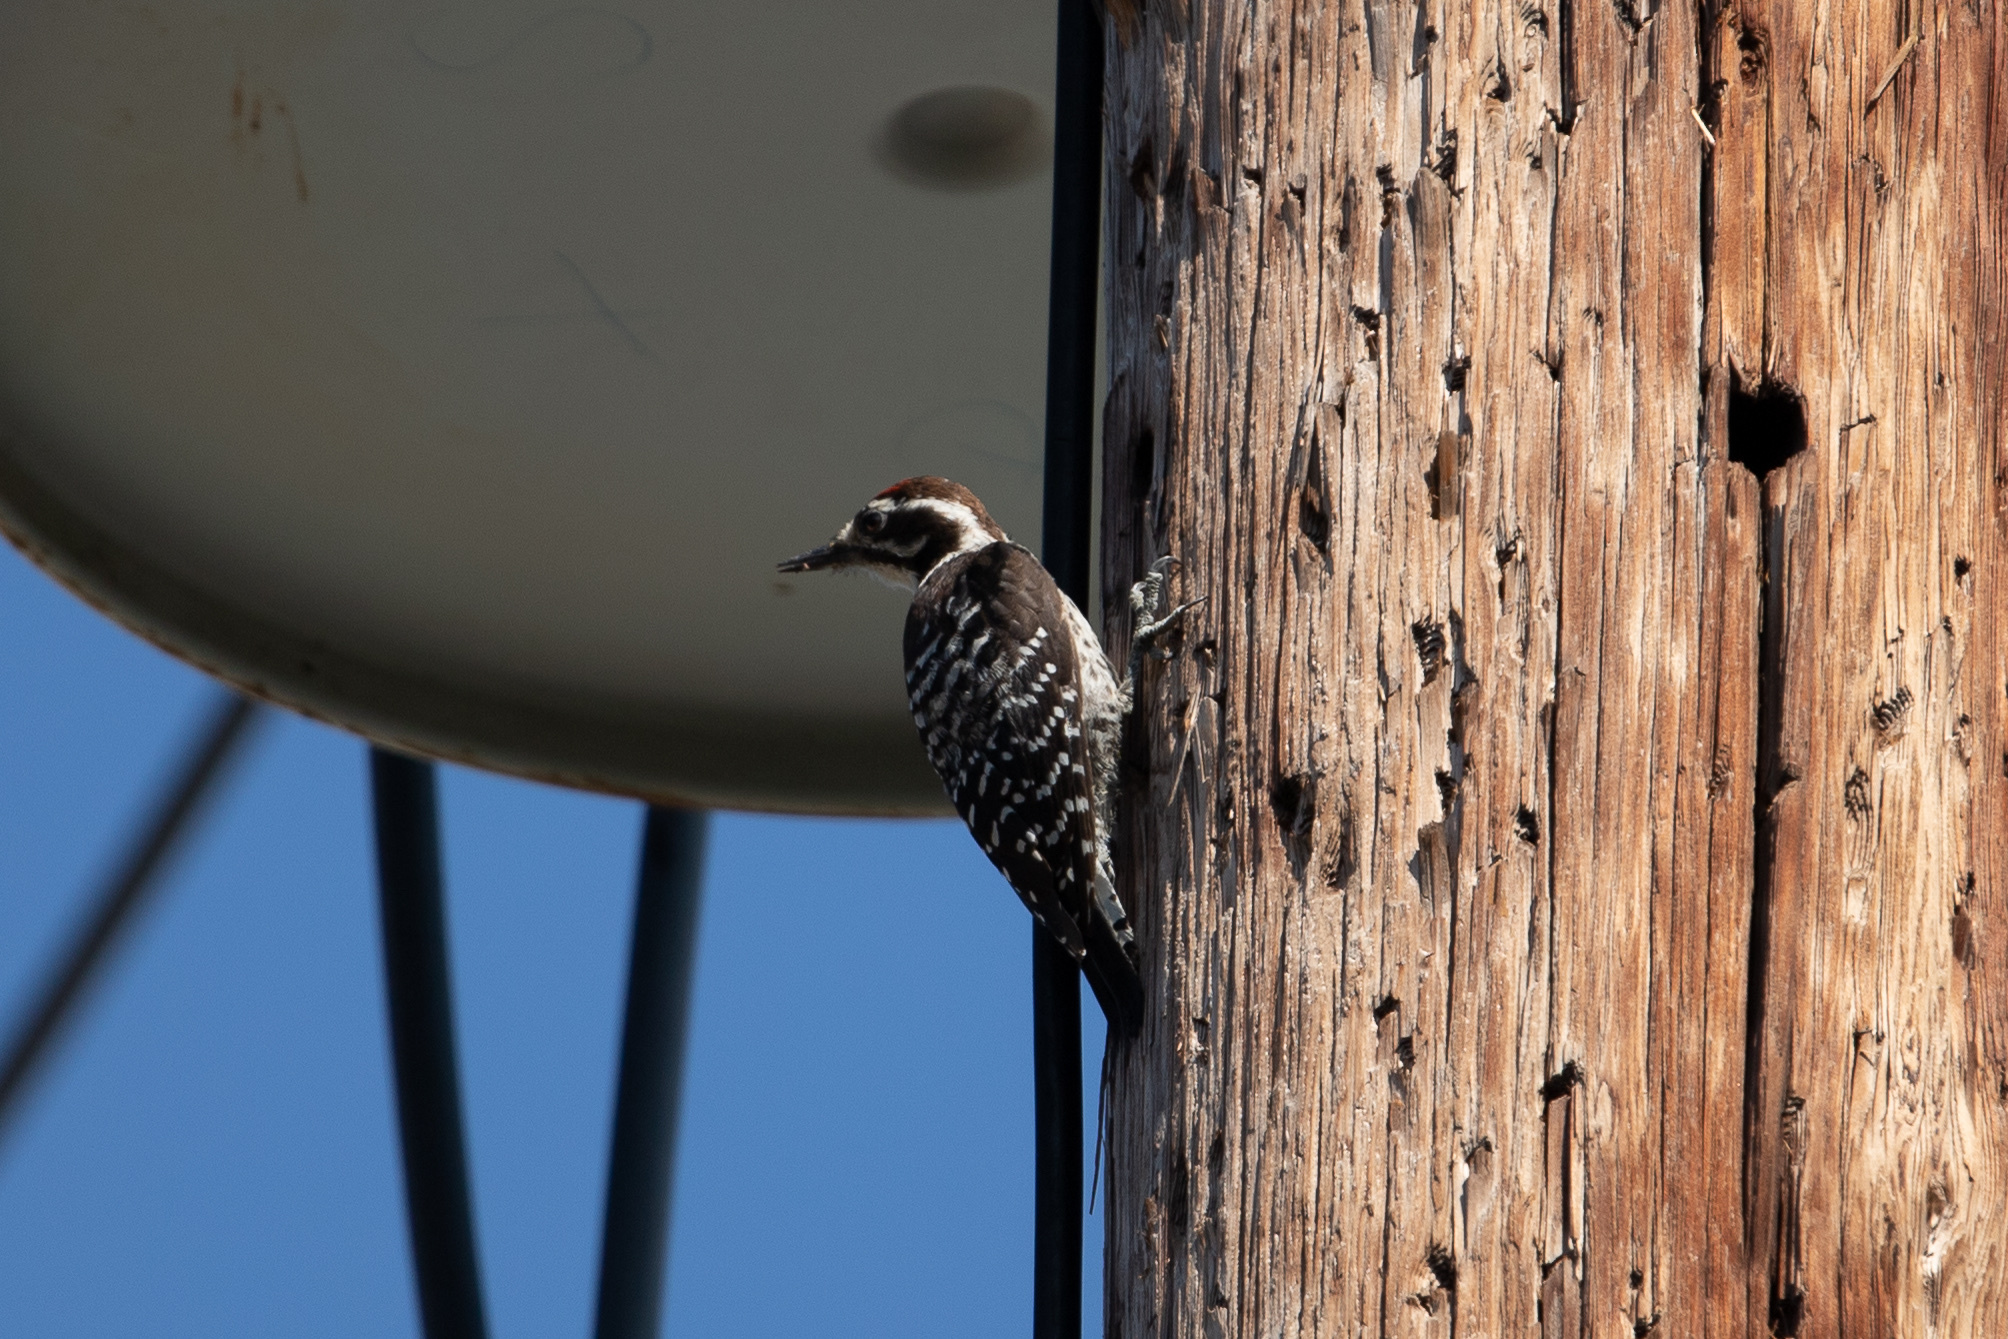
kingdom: Animalia
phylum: Chordata
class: Aves
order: Piciformes
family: Picidae
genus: Dryobates
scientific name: Dryobates nuttallii
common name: Nuttall's woodpecker
